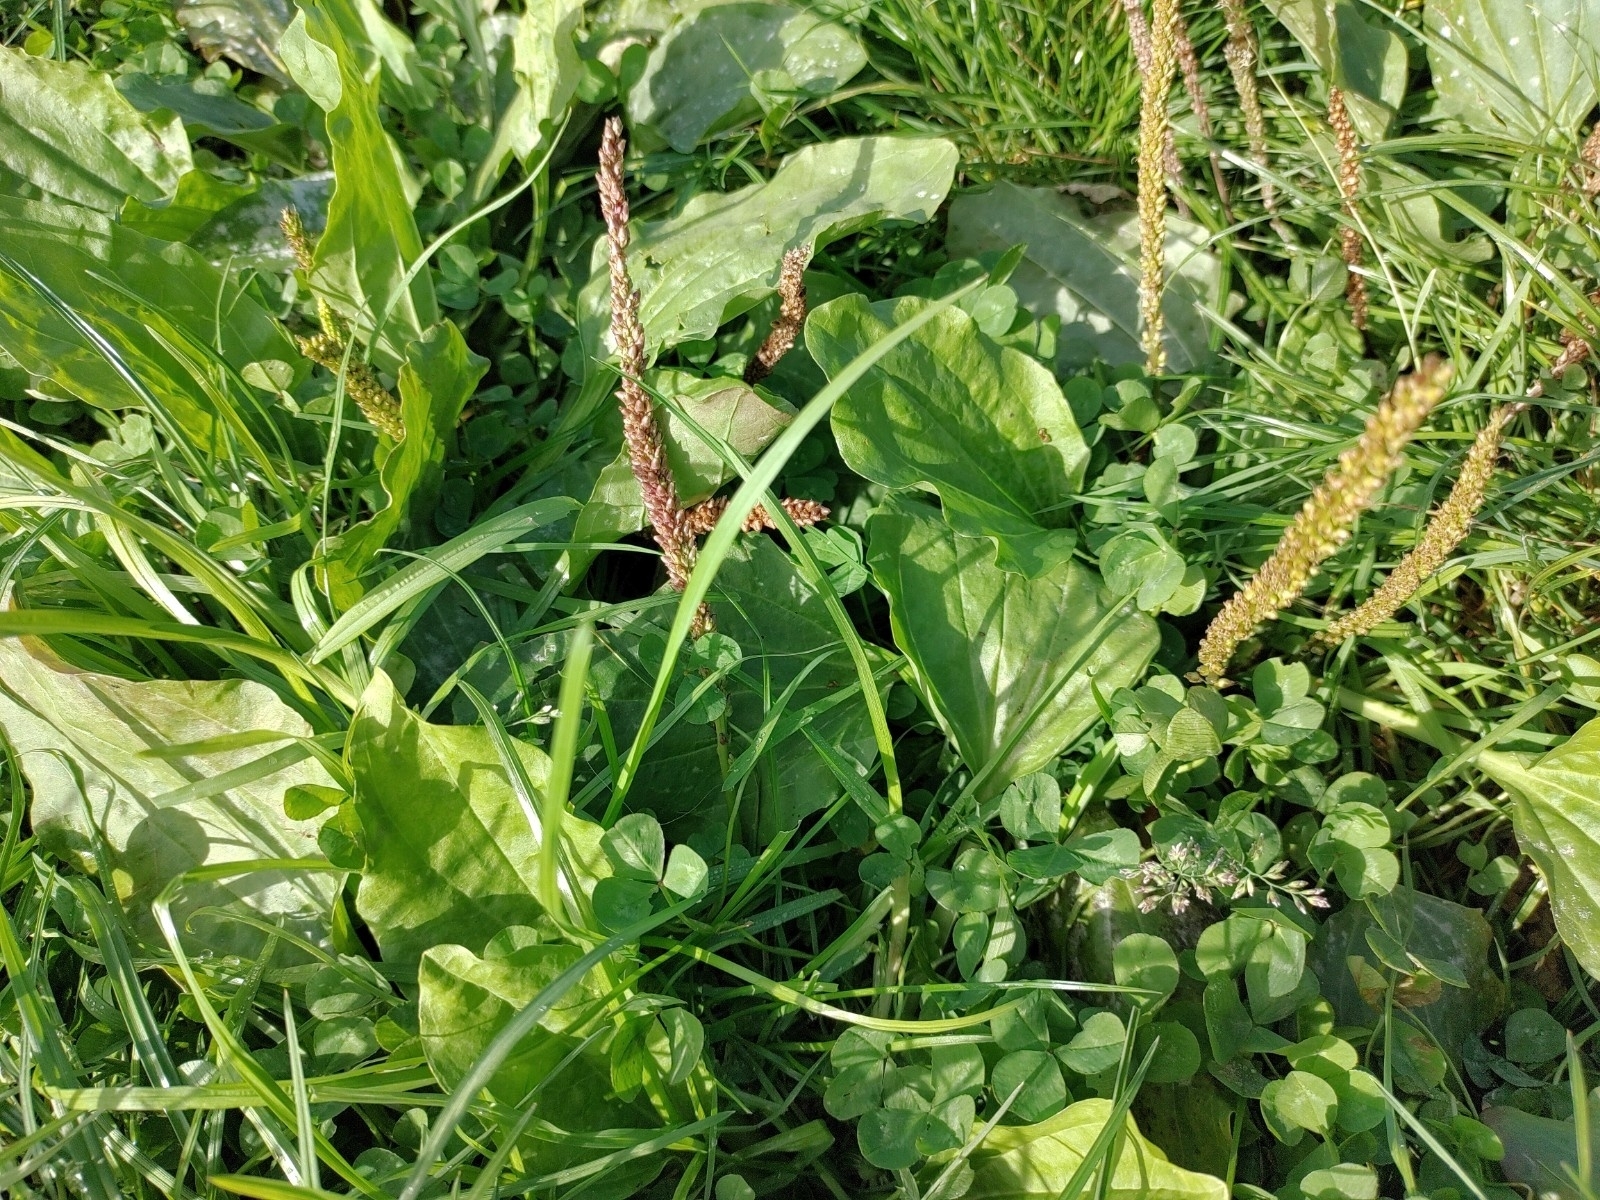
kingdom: Plantae
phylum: Tracheophyta
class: Magnoliopsida
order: Lamiales
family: Plantaginaceae
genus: Plantago
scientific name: Plantago major
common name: Common plantain
